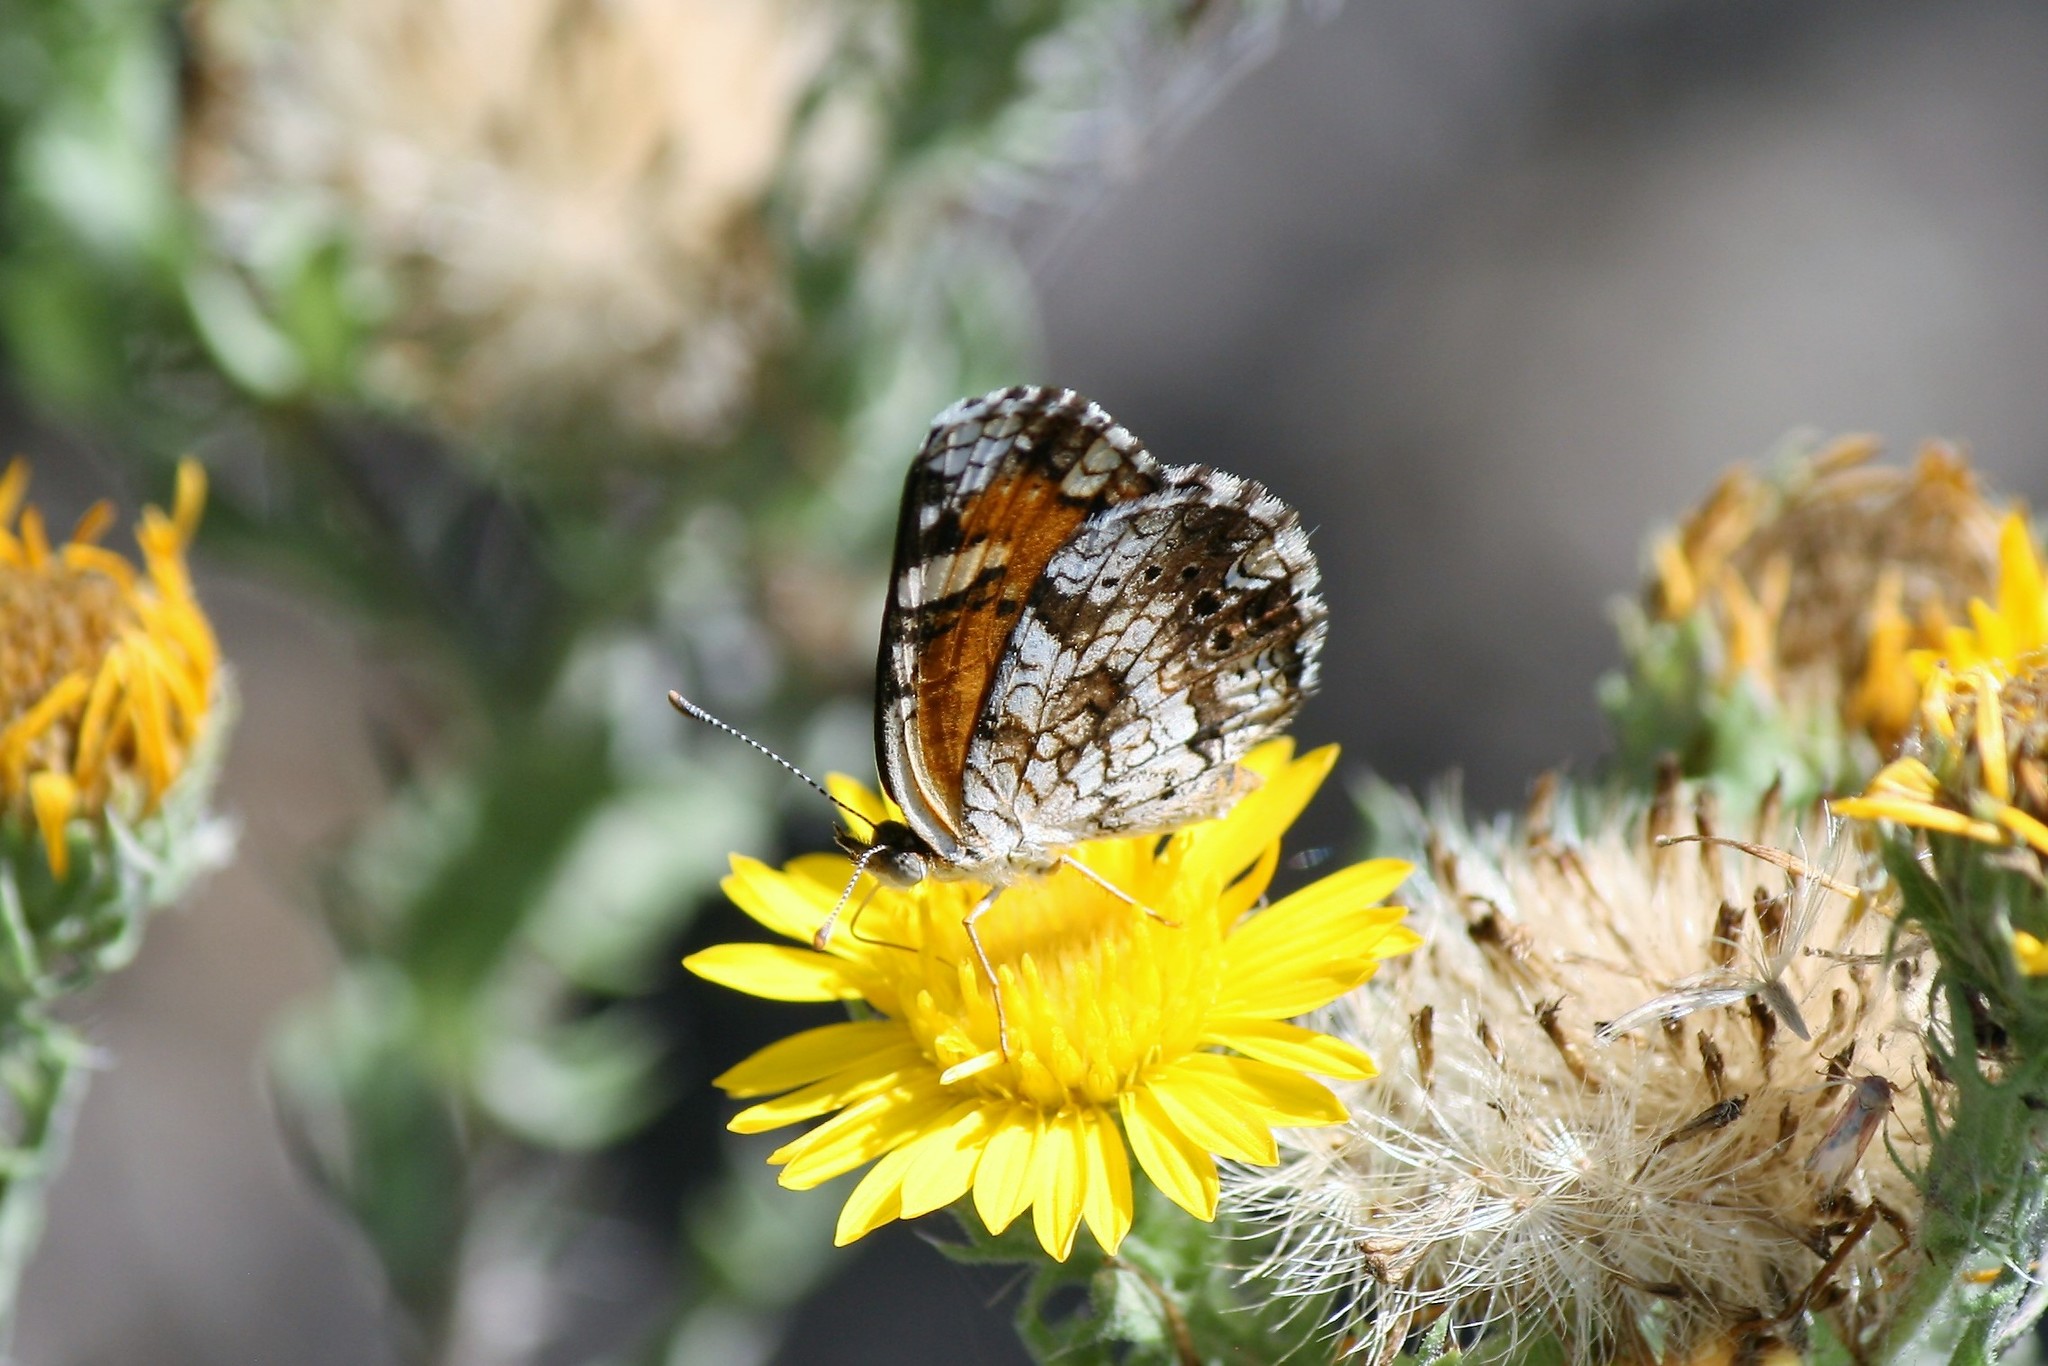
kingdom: Animalia
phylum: Arthropoda
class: Insecta
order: Lepidoptera
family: Nymphalidae
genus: Phyciodes
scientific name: Phyciodes phaon
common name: Phaon crescent
